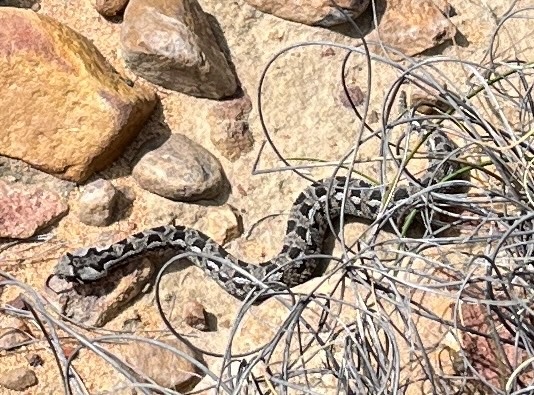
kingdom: Animalia
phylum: Chordata
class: Squamata
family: Viperidae
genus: Bitis
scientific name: Bitis rubida
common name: Red adder
